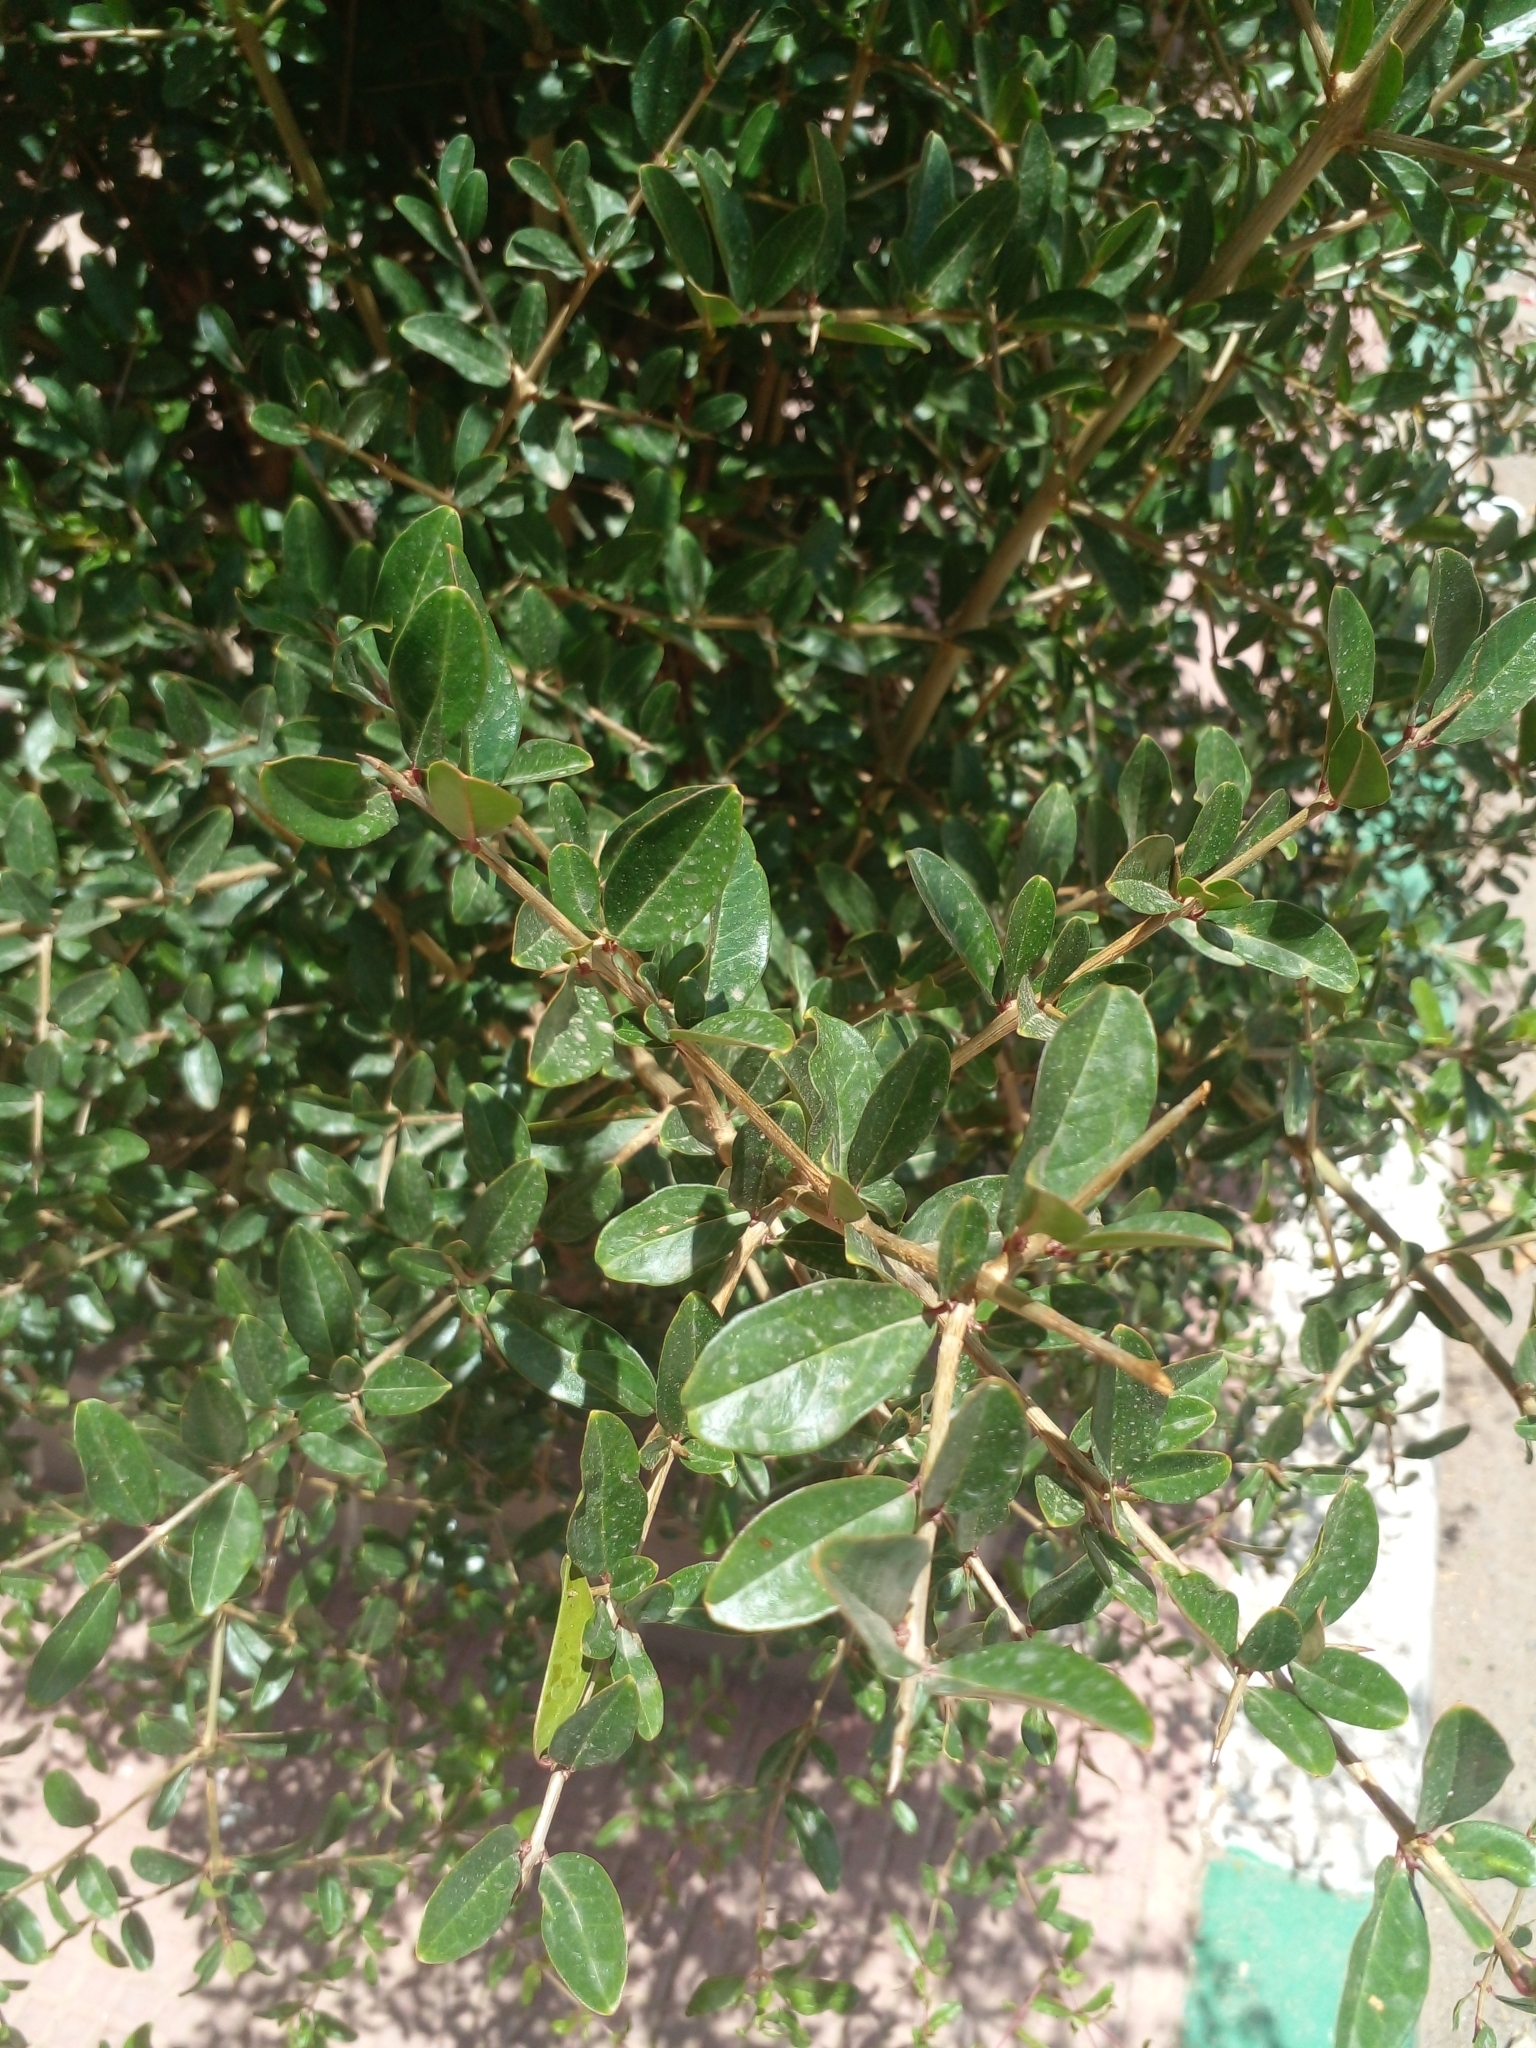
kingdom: Plantae
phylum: Tracheophyta
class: Magnoliopsida
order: Myrtales
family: Lythraceae
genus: Punica
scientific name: Punica granatum
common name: Pomegranate
